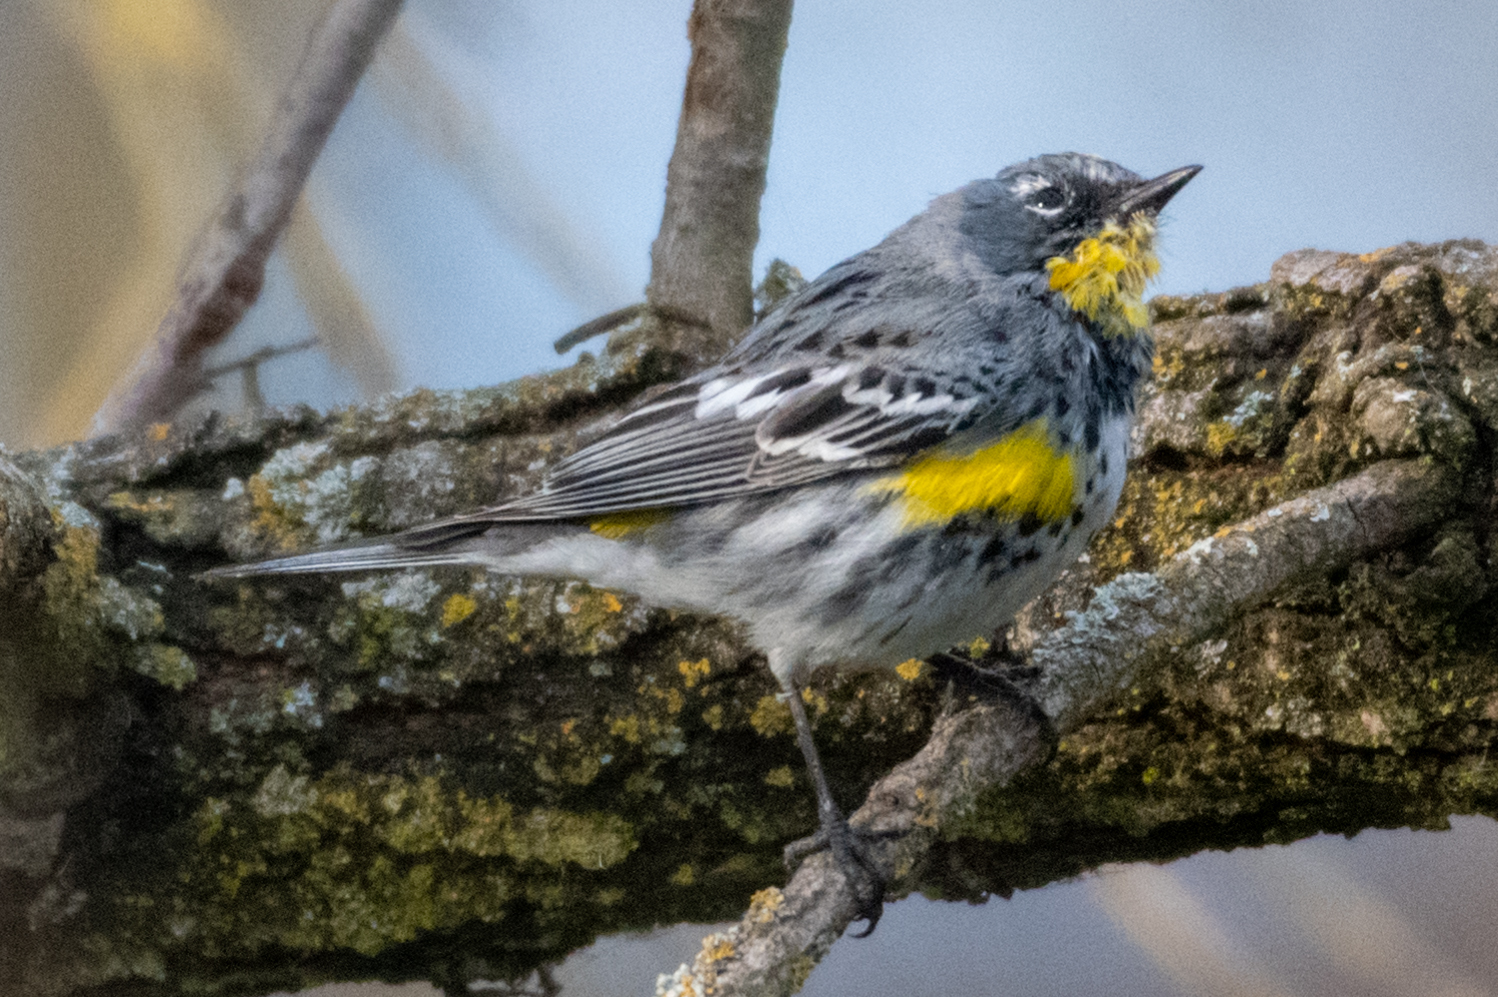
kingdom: Animalia
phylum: Chordata
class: Aves
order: Passeriformes
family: Parulidae
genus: Setophaga
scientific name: Setophaga auduboni
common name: Audubon's warbler
